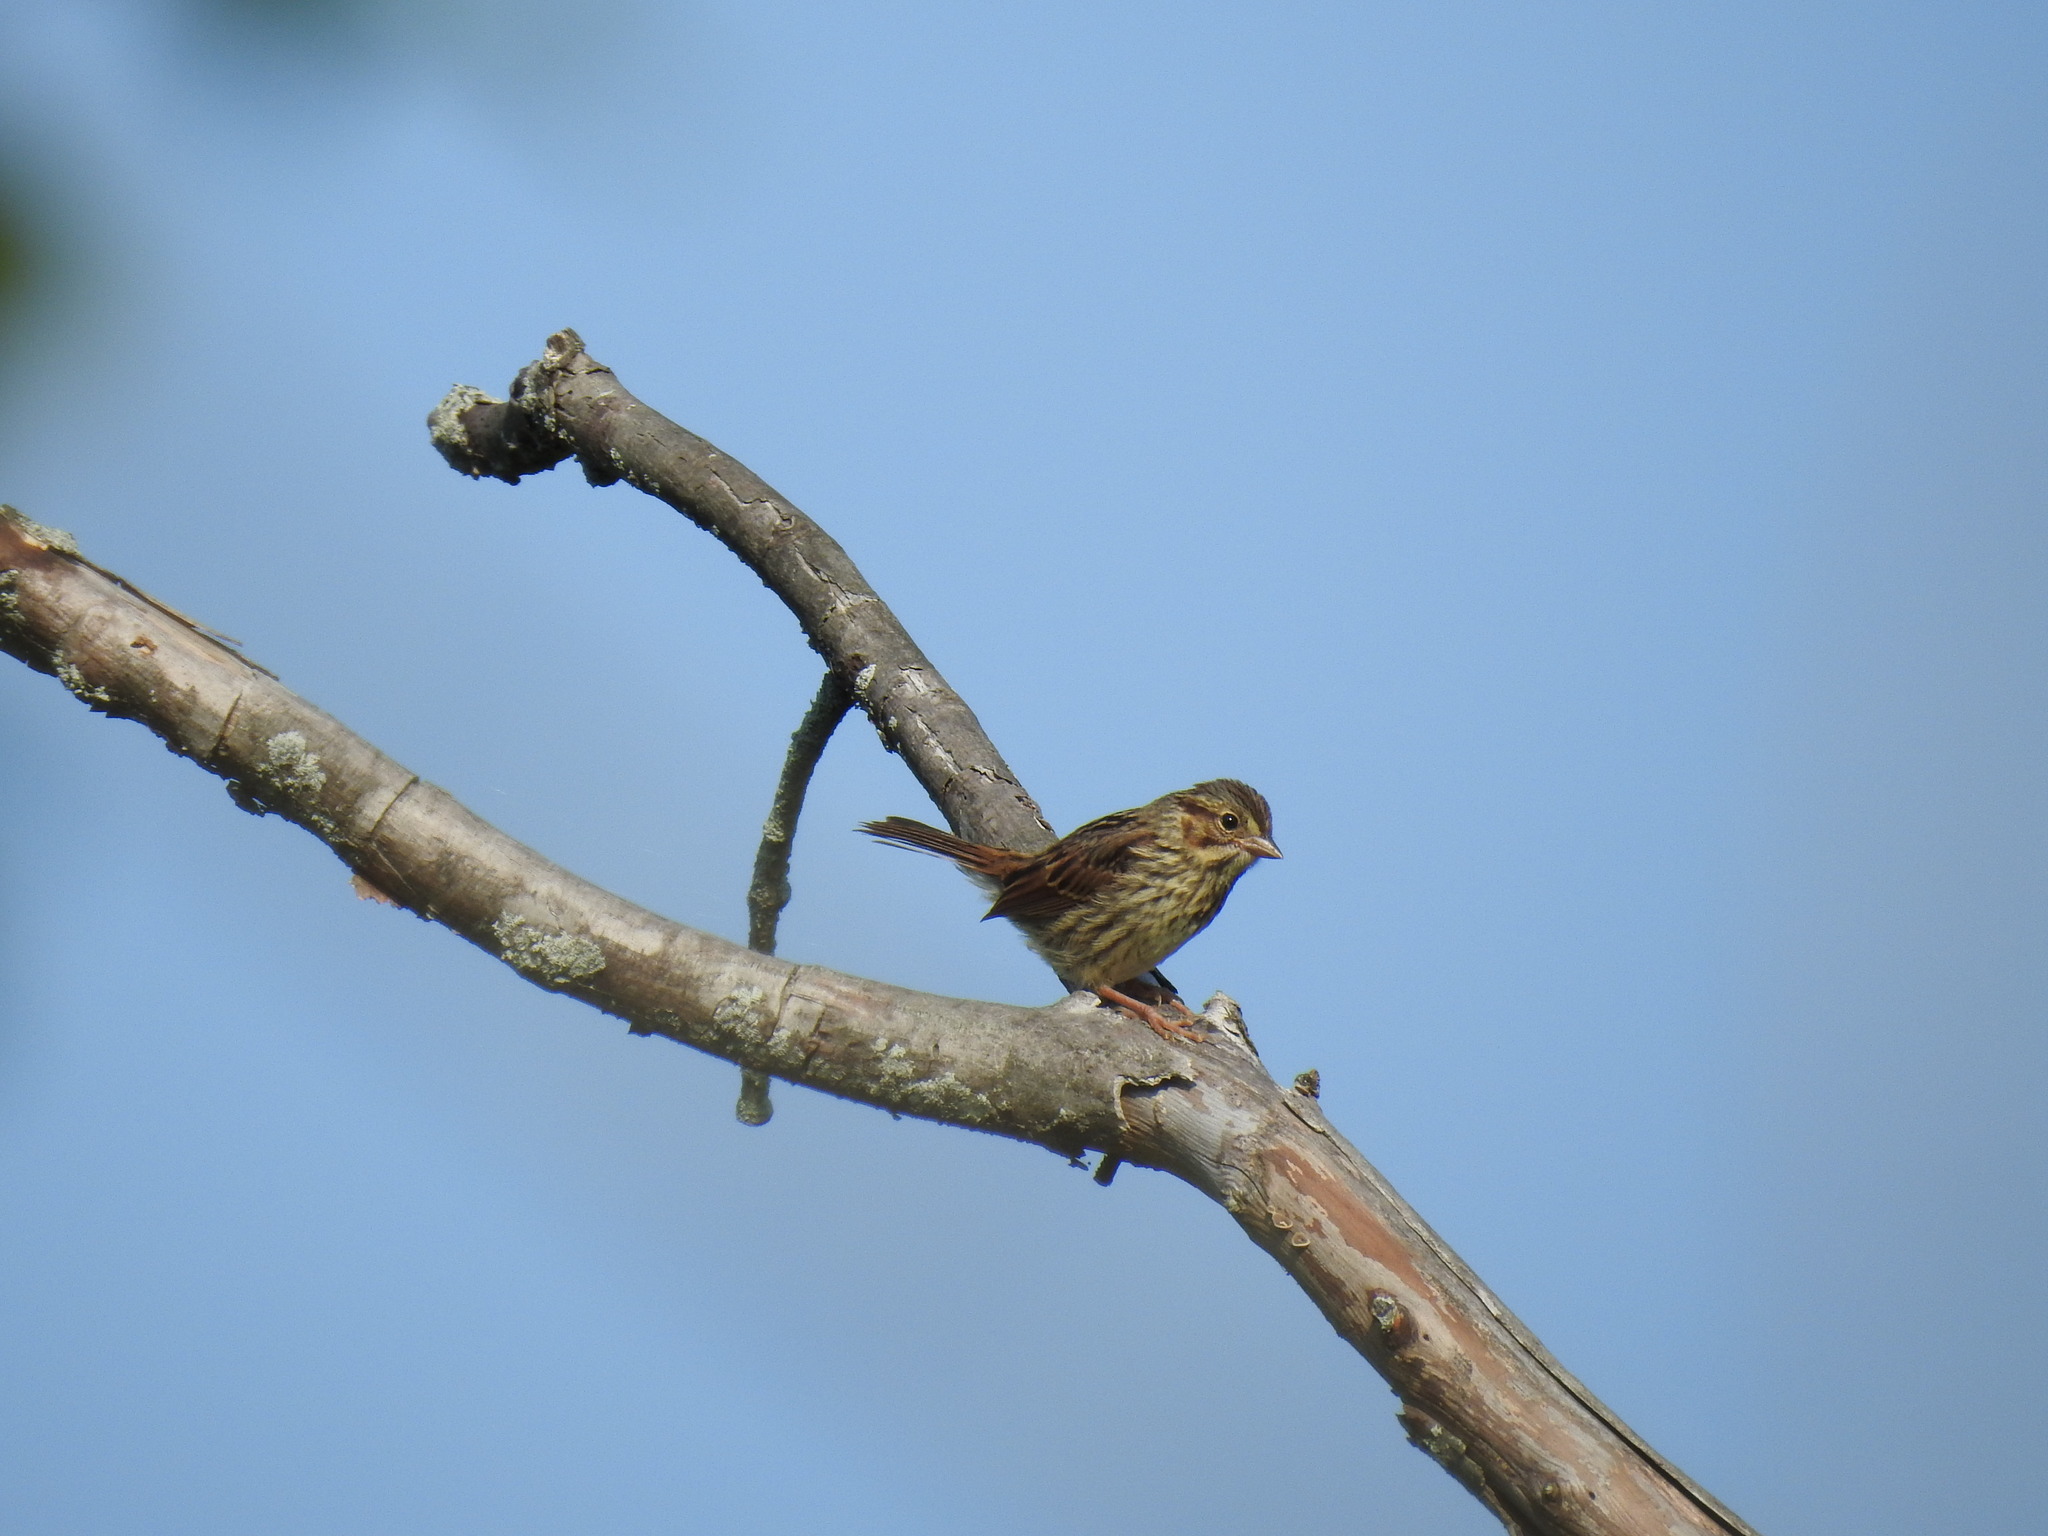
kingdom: Animalia
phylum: Chordata
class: Aves
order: Passeriformes
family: Passerellidae
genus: Melospiza
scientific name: Melospiza melodia
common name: Song sparrow
